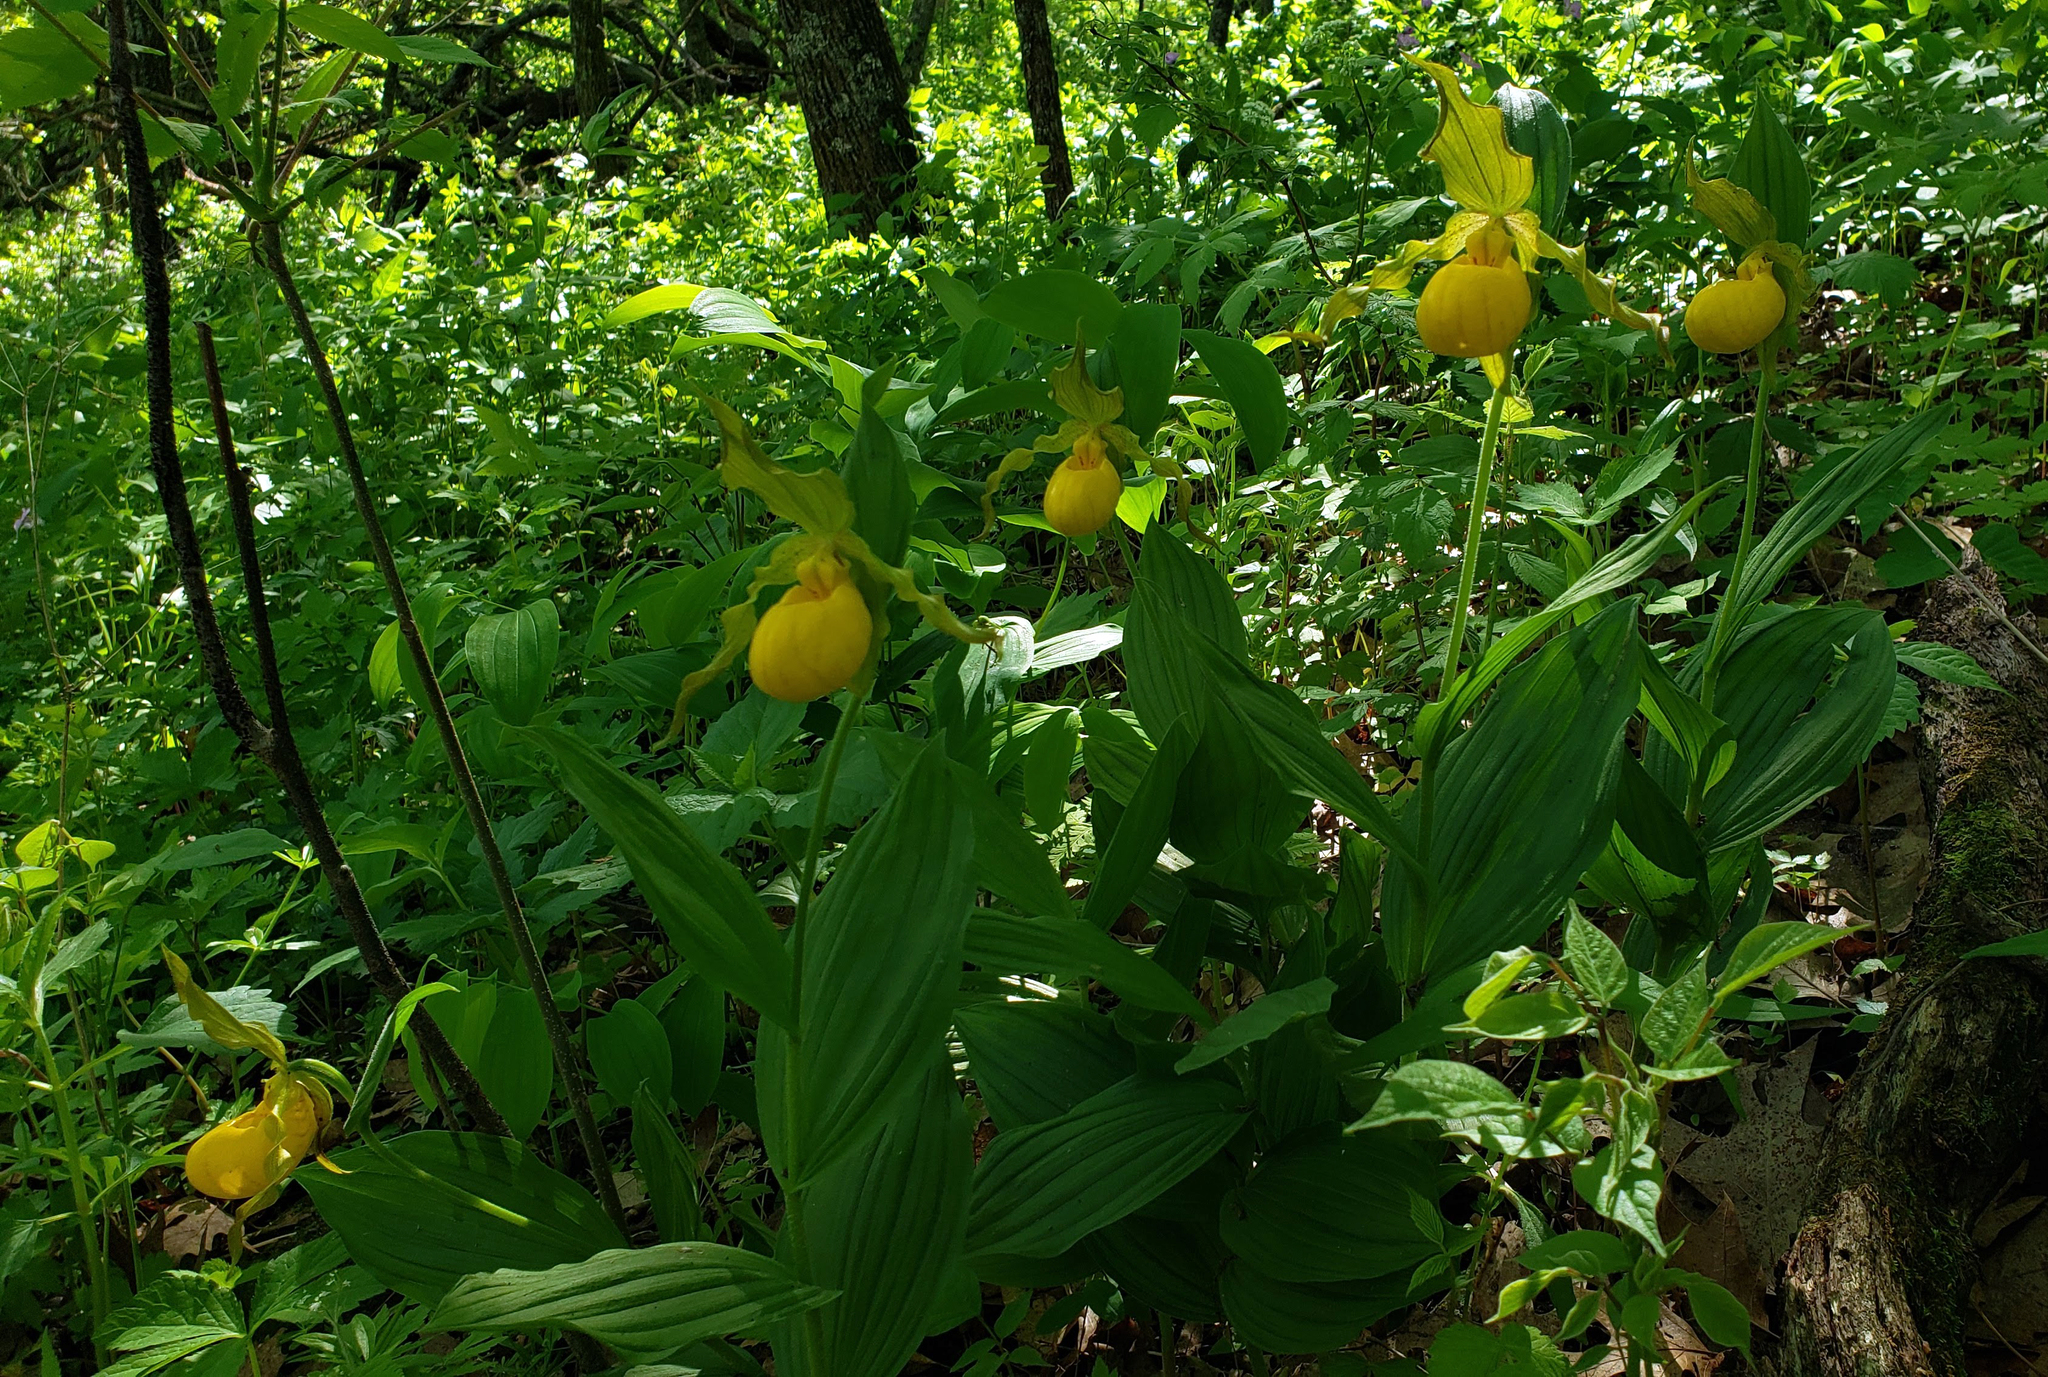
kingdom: Plantae
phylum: Tracheophyta
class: Liliopsida
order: Asparagales
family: Orchidaceae
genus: Cypripedium
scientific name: Cypripedium parviflorum
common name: American yellow lady's-slipper
